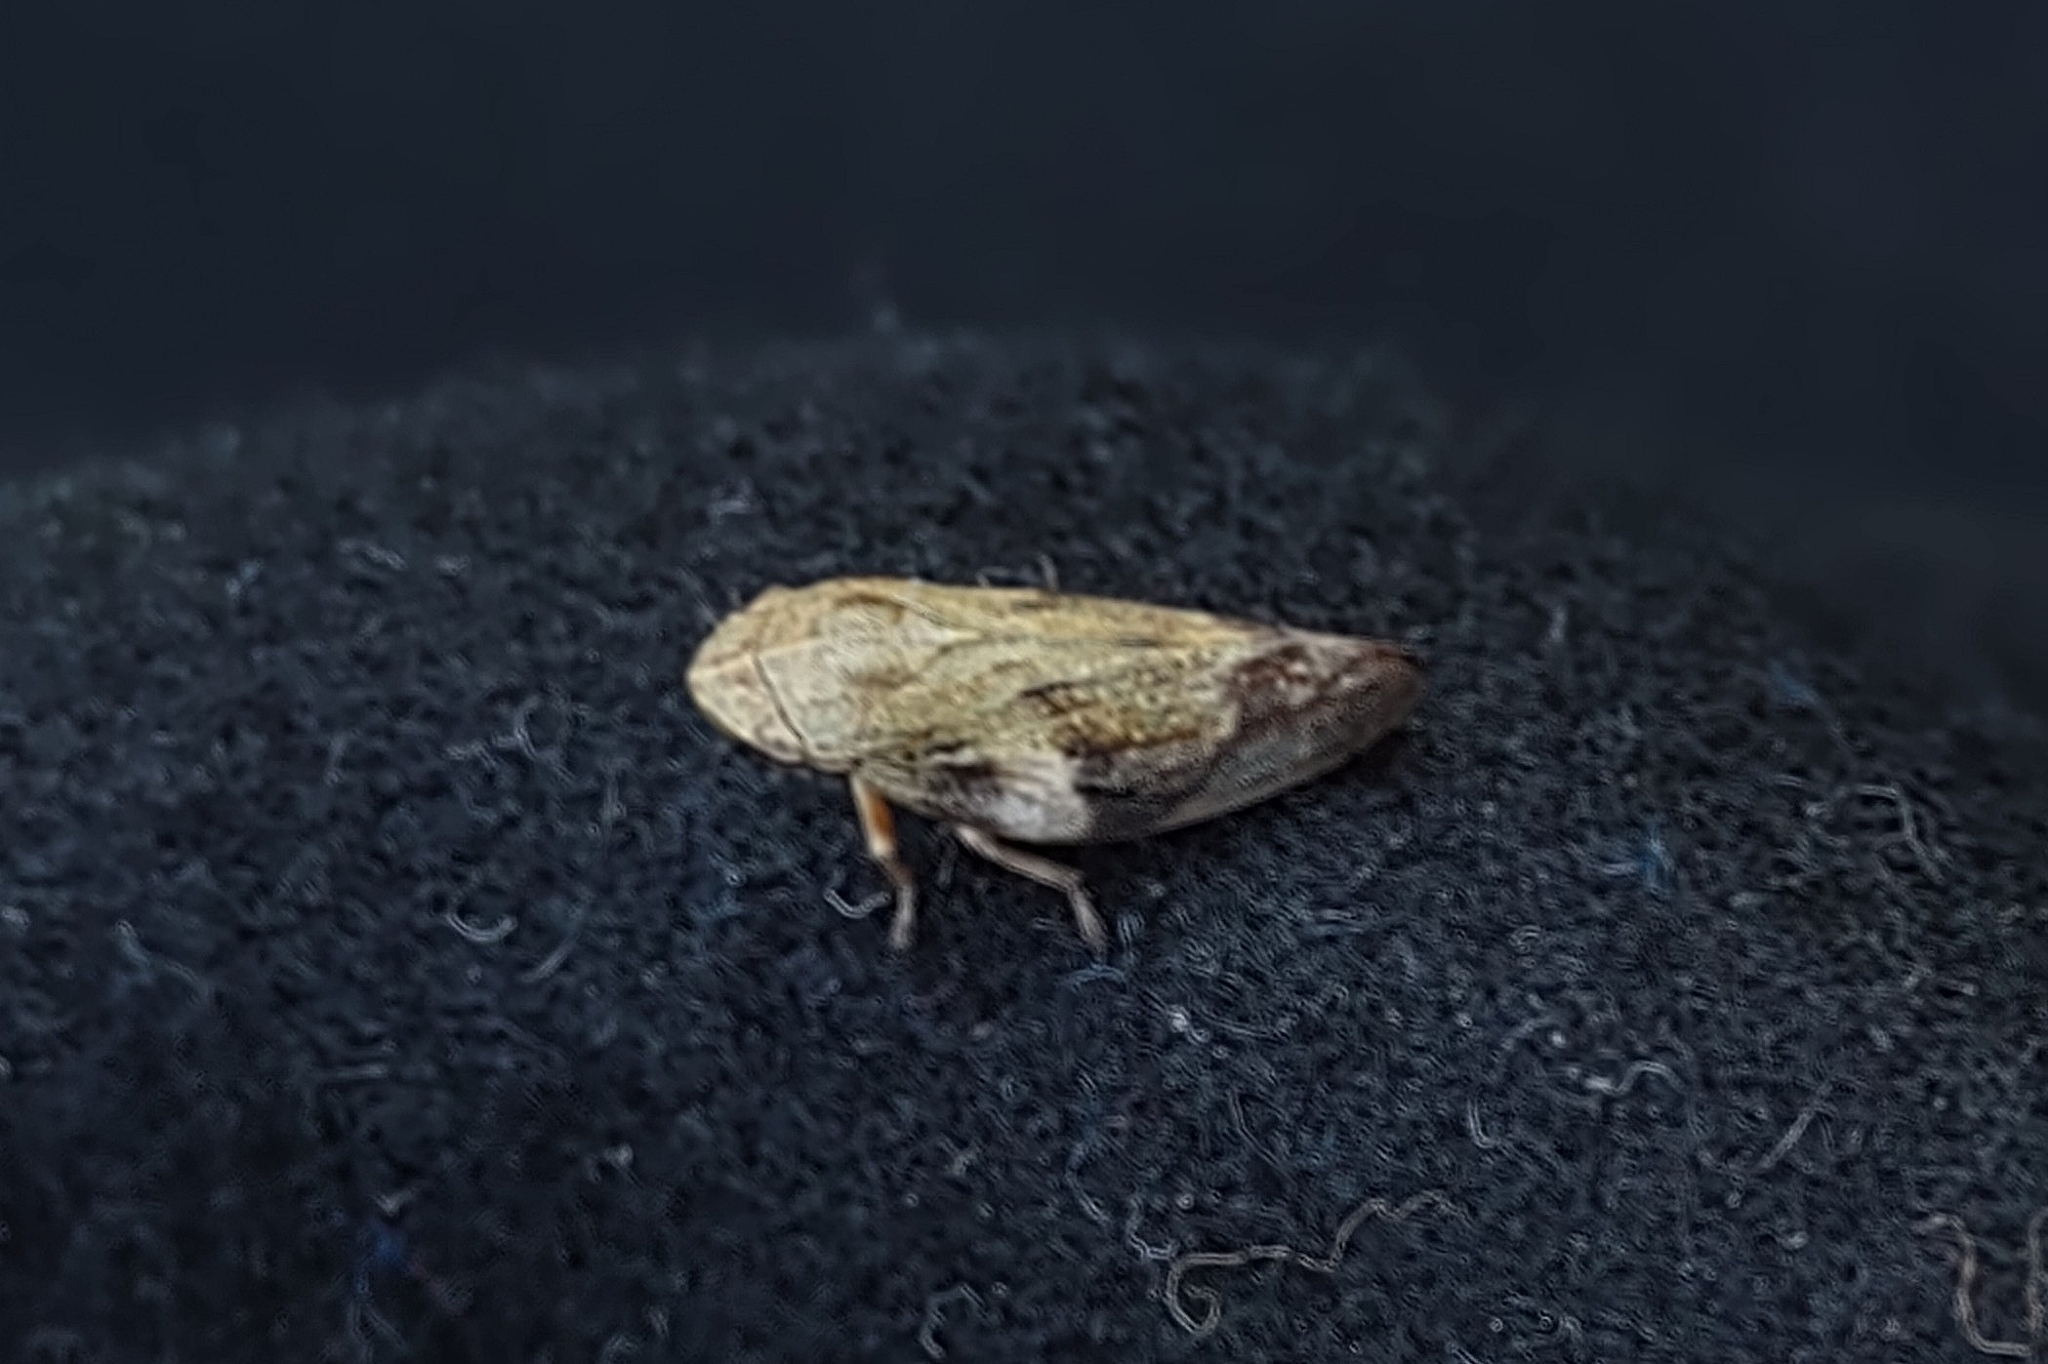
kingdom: Animalia
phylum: Arthropoda
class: Insecta
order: Hemiptera
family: Aphrophoridae
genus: Aphrophora
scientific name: Aphrophora alni
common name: European alder spittlebug
